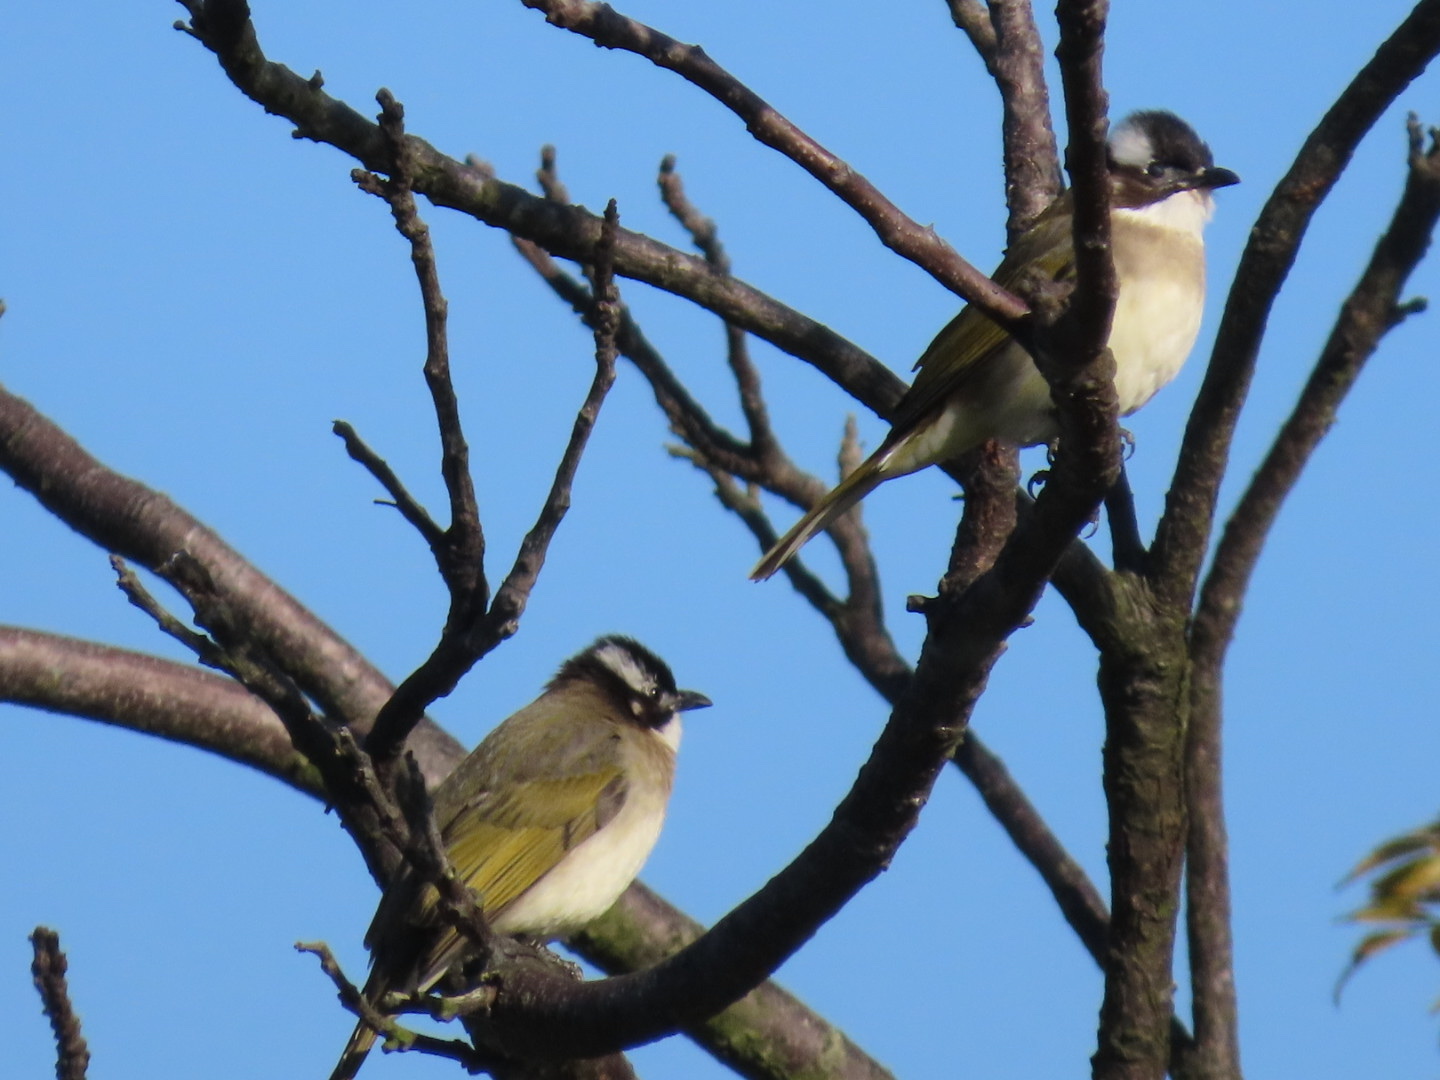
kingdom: Animalia
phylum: Chordata
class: Aves
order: Passeriformes
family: Pycnonotidae
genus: Pycnonotus
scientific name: Pycnonotus sinensis
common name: Light-vented bulbul
